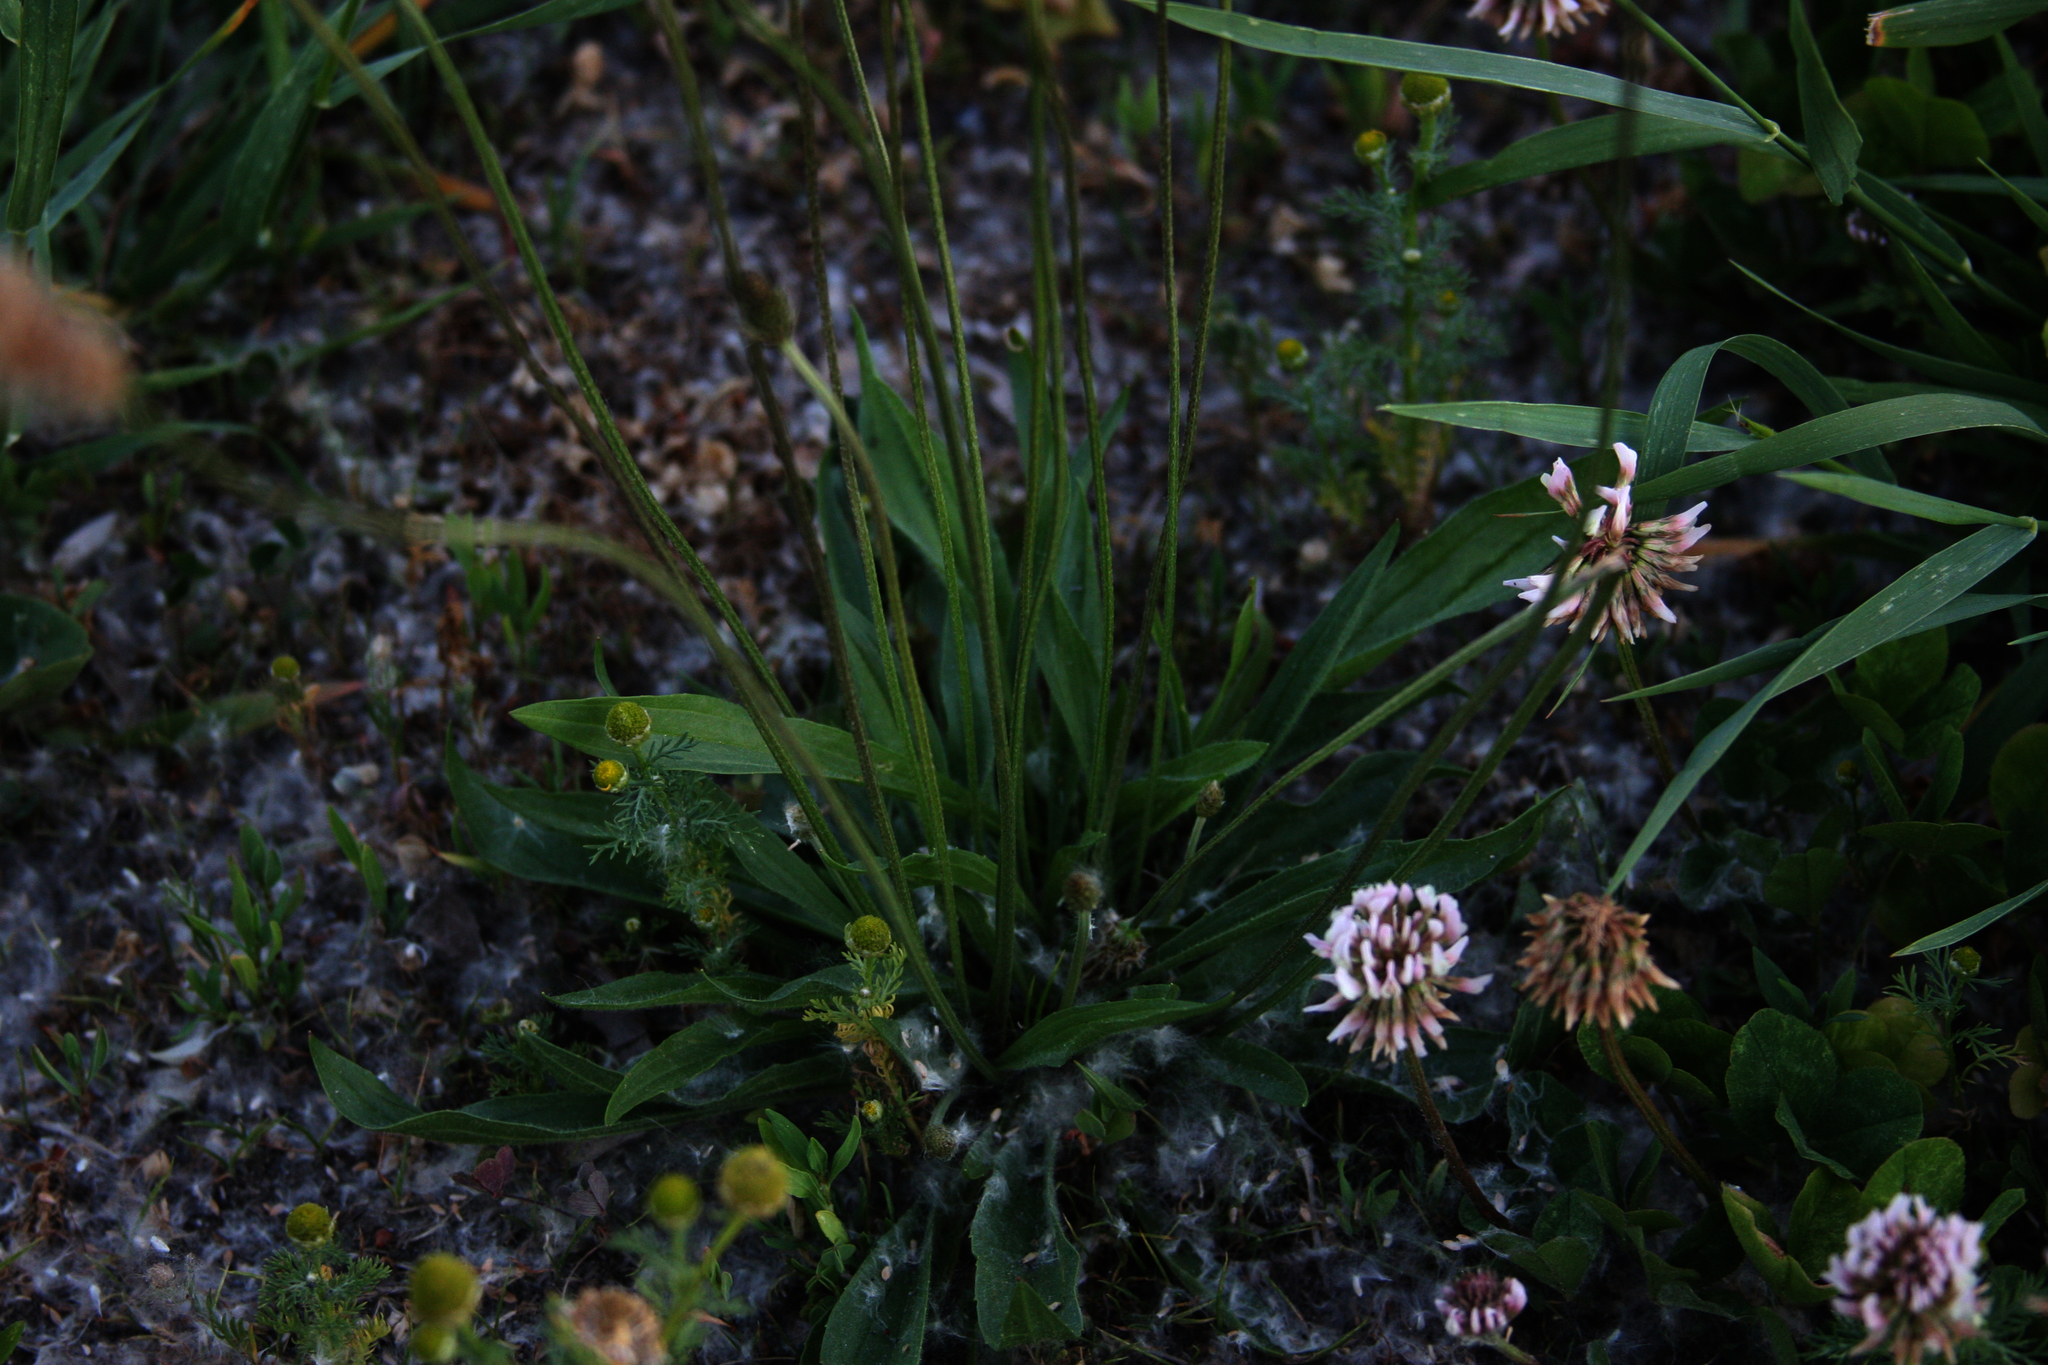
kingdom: Plantae
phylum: Tracheophyta
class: Magnoliopsida
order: Lamiales
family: Plantaginaceae
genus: Plantago
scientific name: Plantago lanceolata
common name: Ribwort plantain
